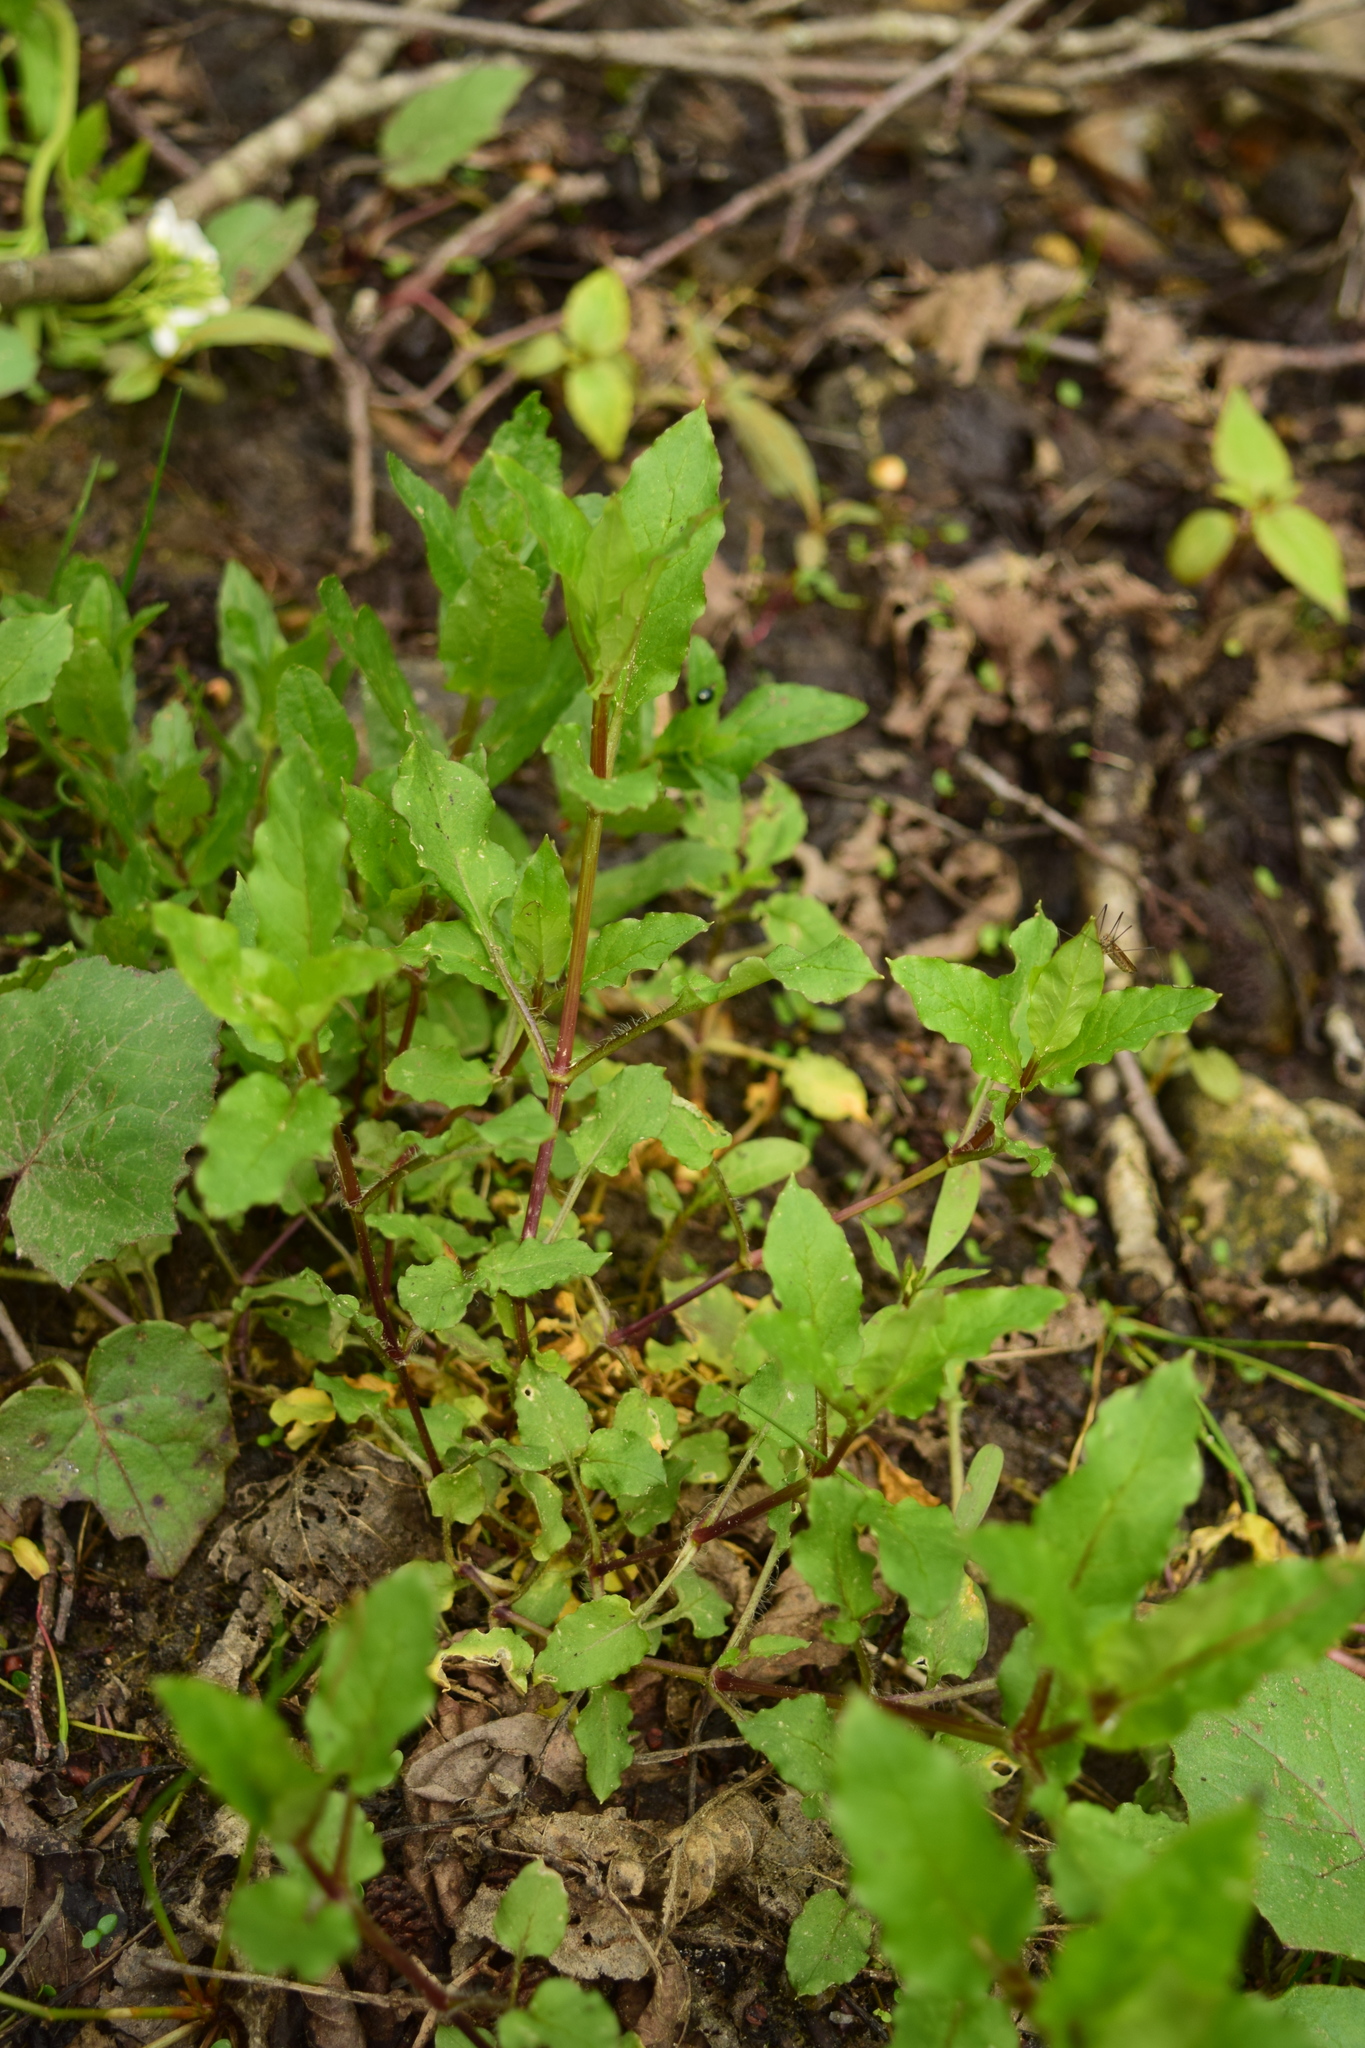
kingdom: Plantae
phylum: Tracheophyta
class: Magnoliopsida
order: Caryophyllales
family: Caryophyllaceae
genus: Stellaria
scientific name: Stellaria aquatica
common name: Water chickweed
